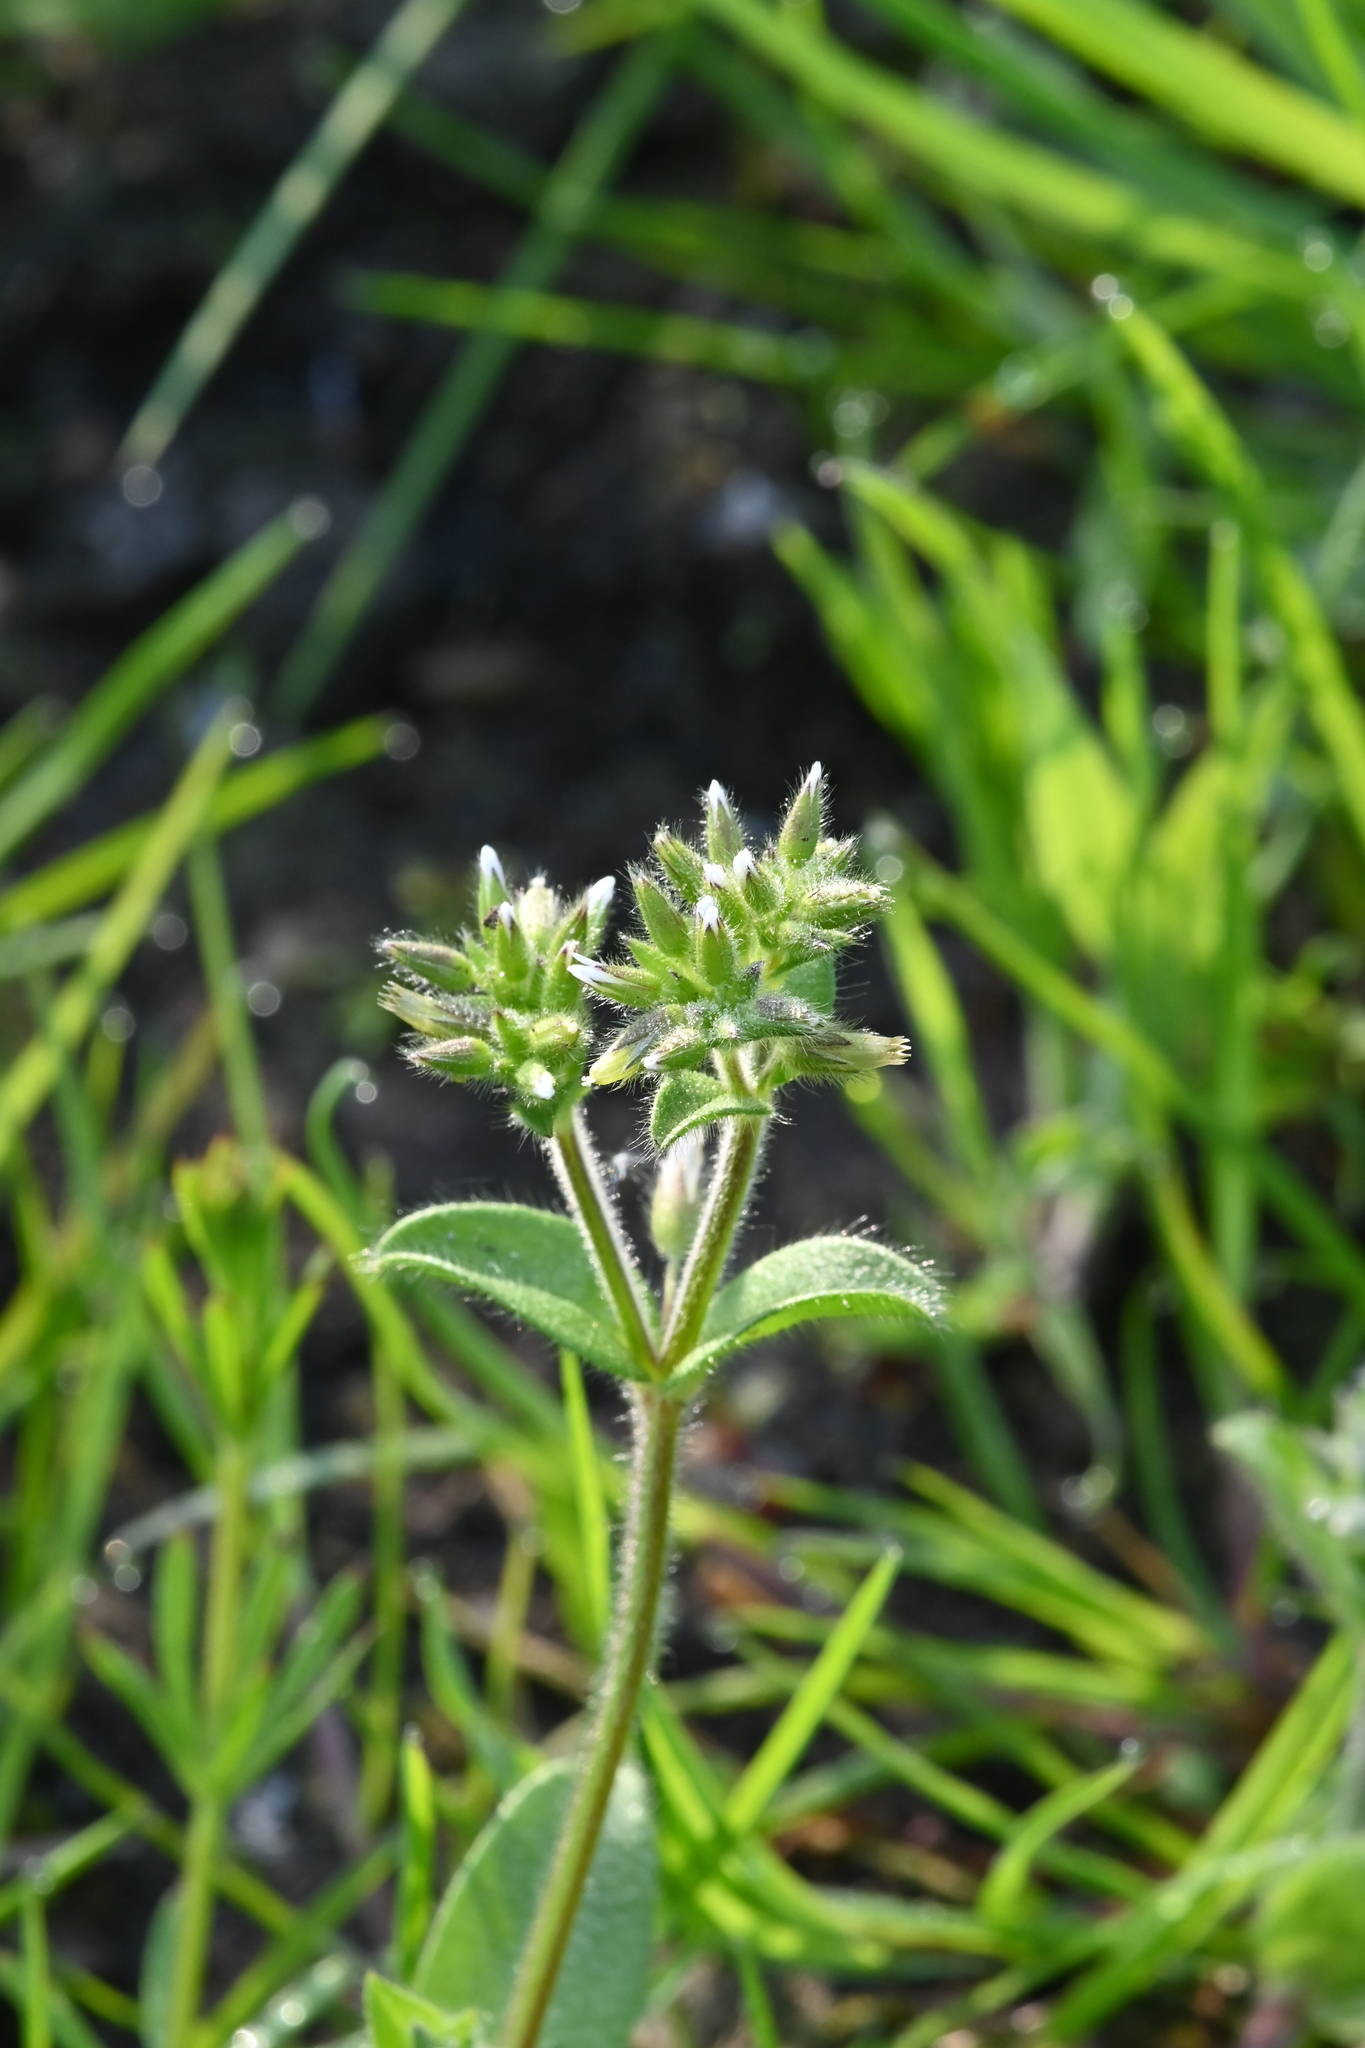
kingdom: Plantae
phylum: Tracheophyta
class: Magnoliopsida
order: Caryophyllales
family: Caryophyllaceae
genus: Cerastium
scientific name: Cerastium glomeratum
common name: Sticky chickweed
